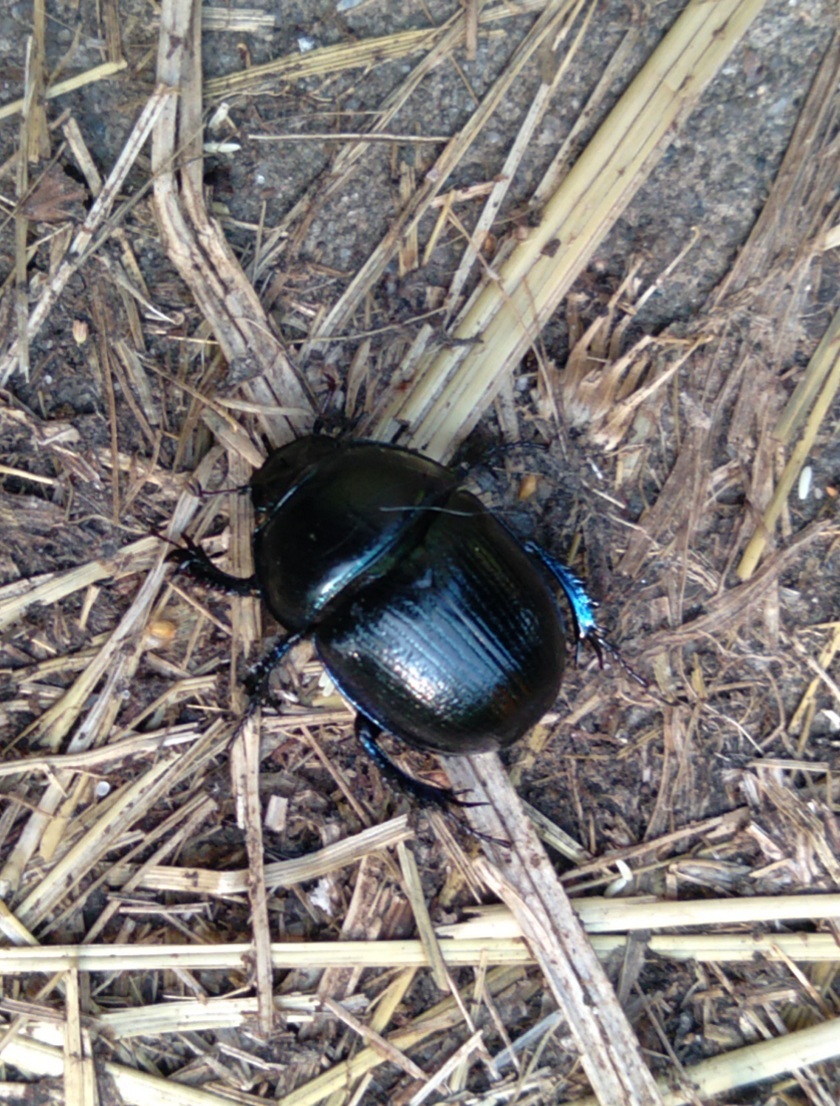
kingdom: Animalia
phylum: Arthropoda
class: Insecta
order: Coleoptera
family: Geotrupidae
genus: Anoplotrupes
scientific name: Anoplotrupes stercorosus
